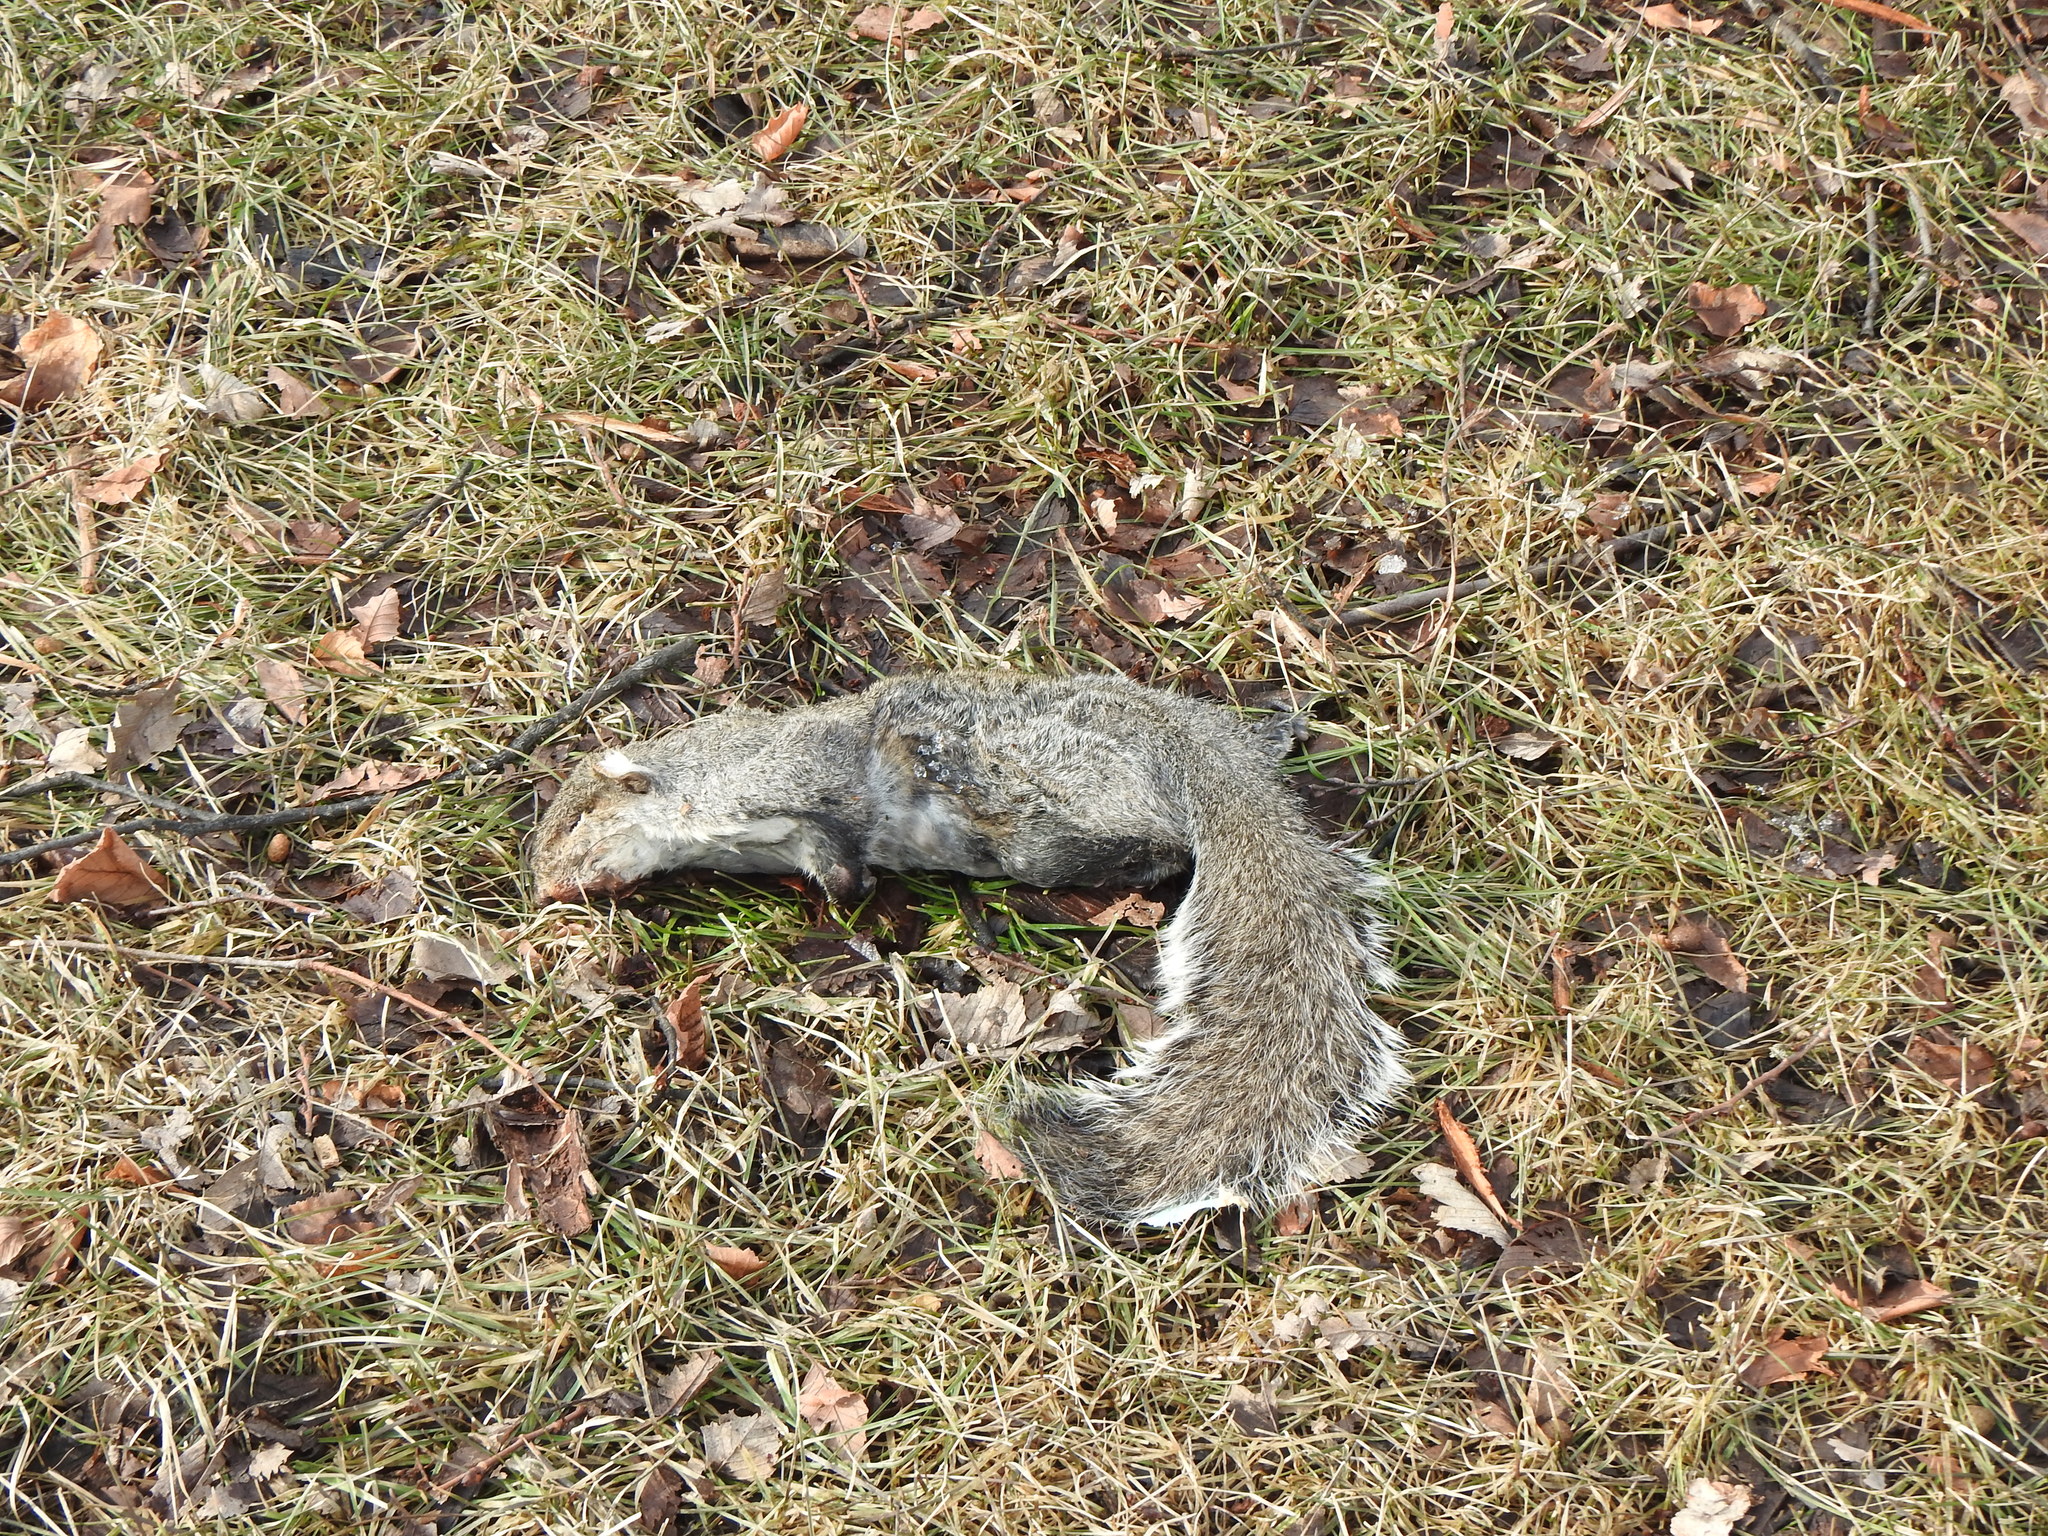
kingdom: Animalia
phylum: Chordata
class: Mammalia
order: Rodentia
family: Sciuridae
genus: Sciurus
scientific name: Sciurus carolinensis
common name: Eastern gray squirrel
